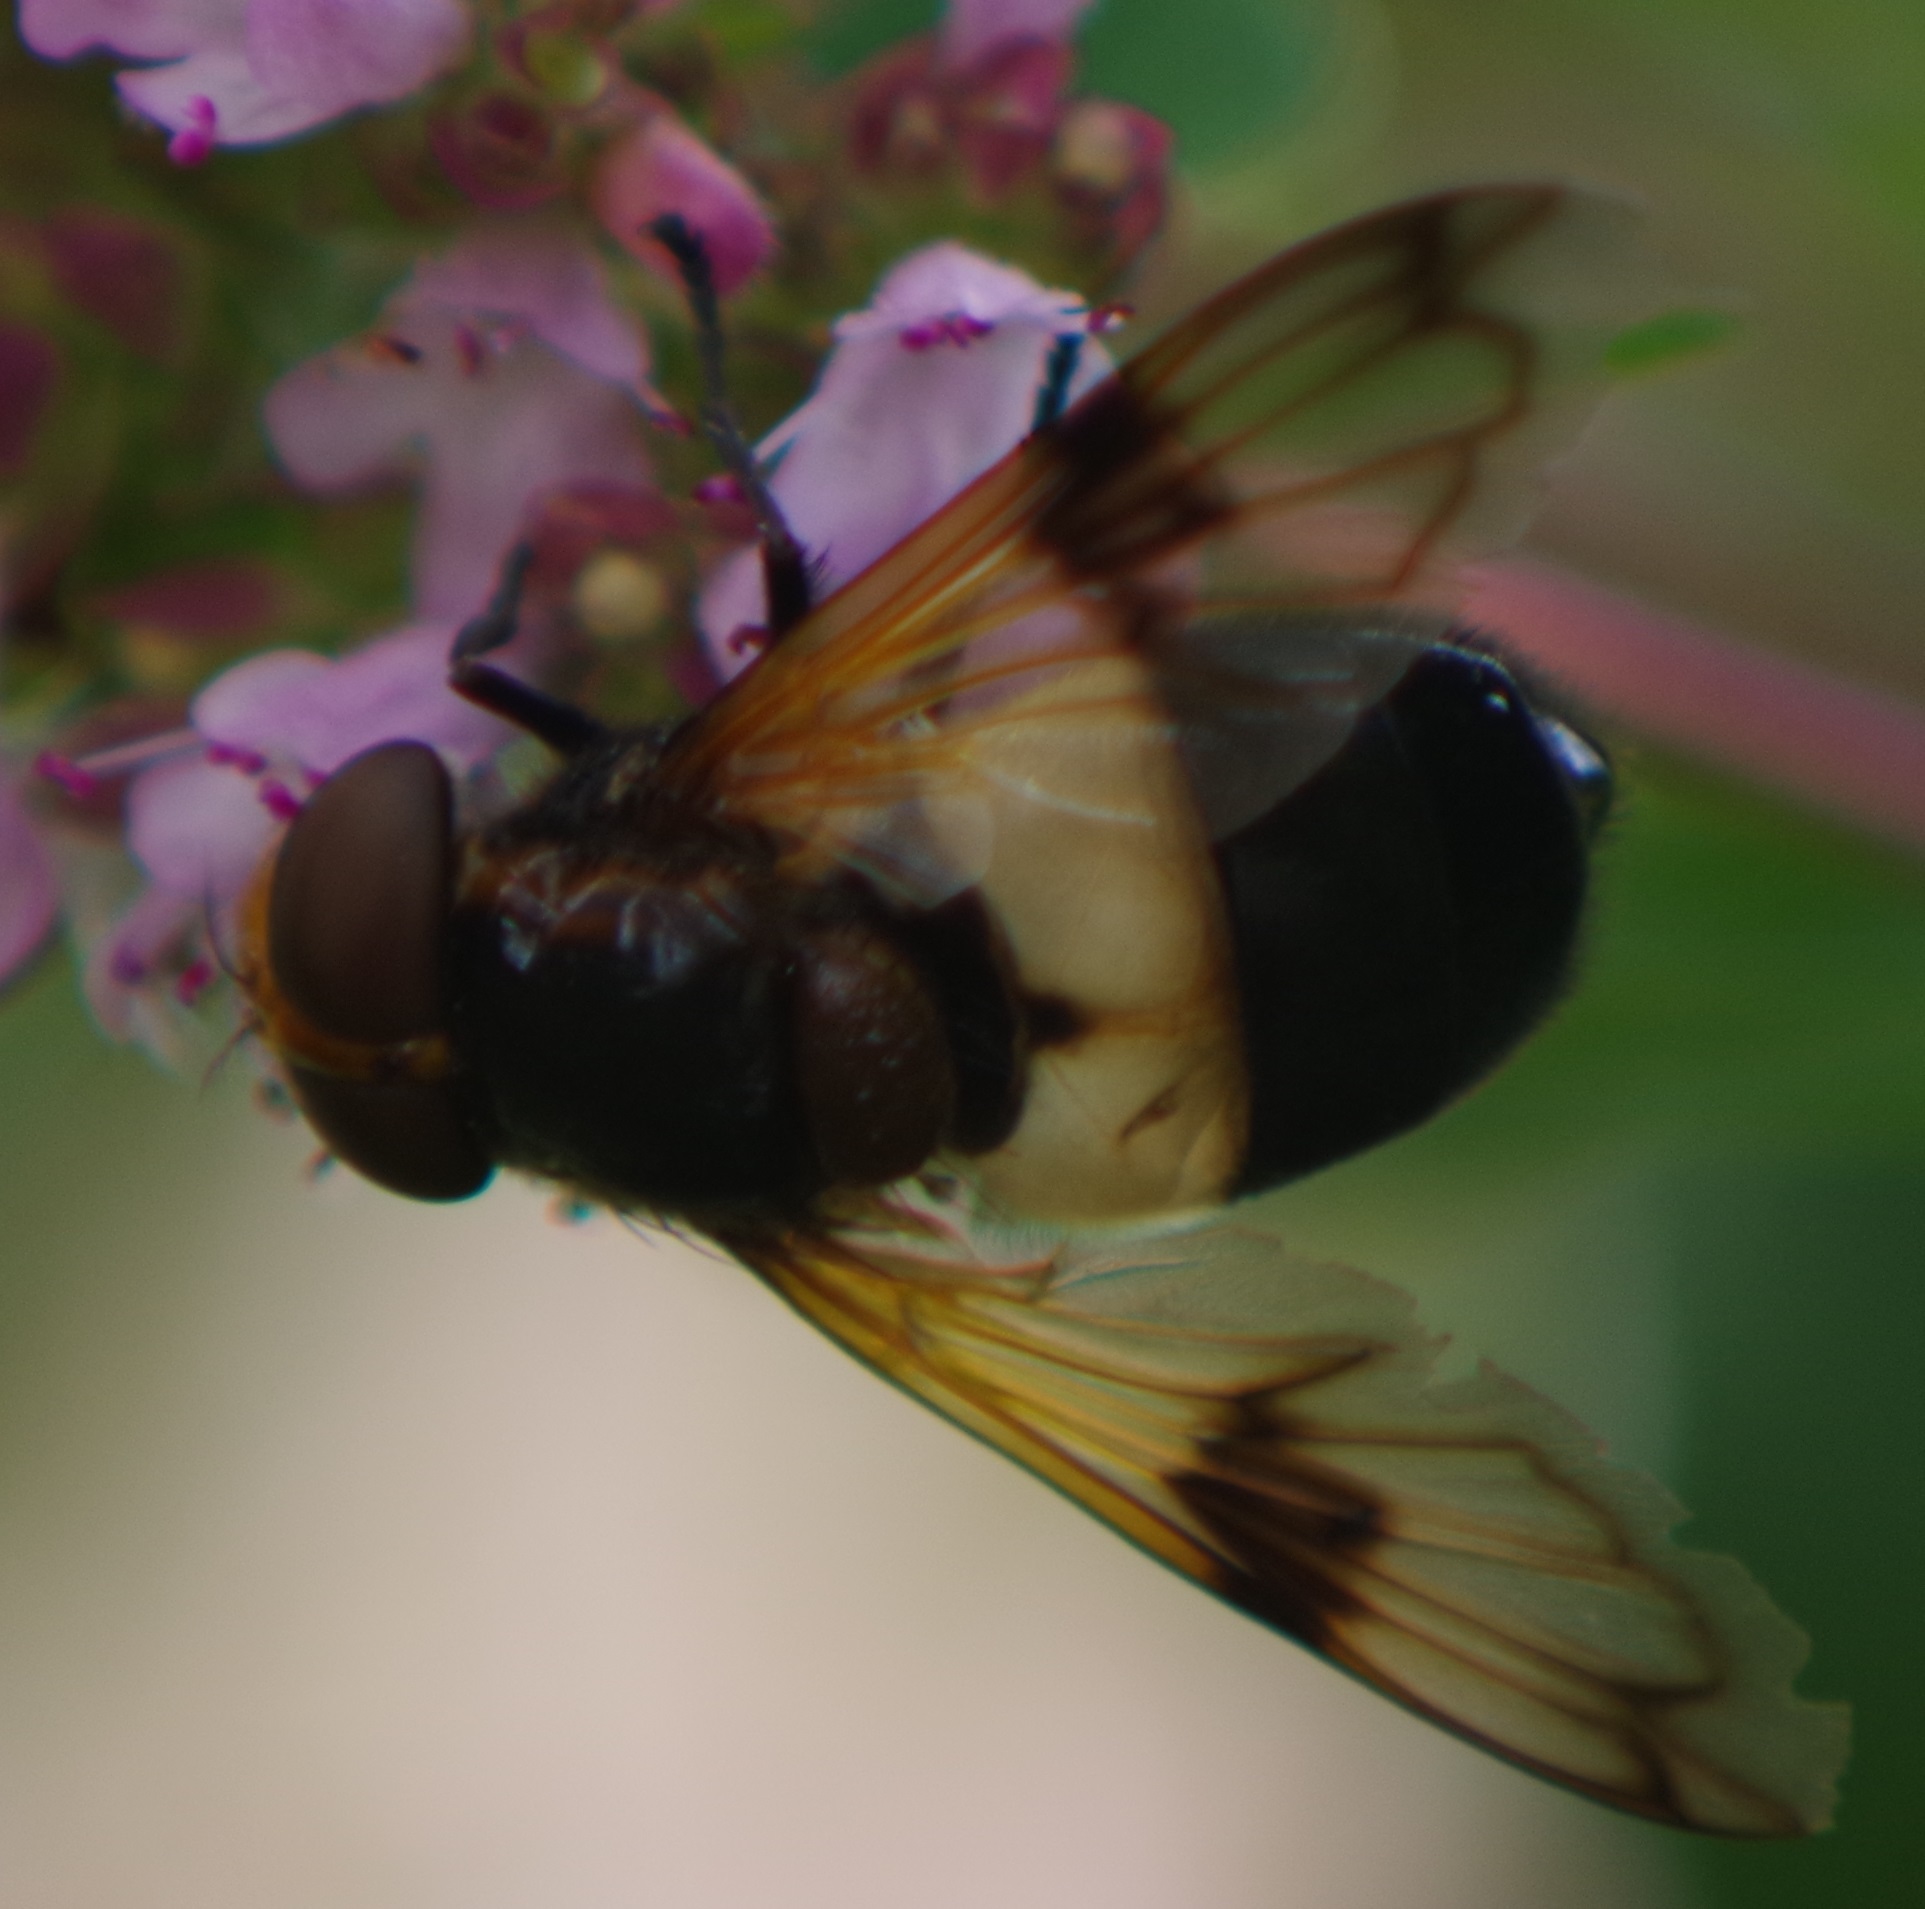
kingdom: Animalia
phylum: Arthropoda
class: Insecta
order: Diptera
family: Syrphidae
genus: Volucella
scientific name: Volucella pellucens
